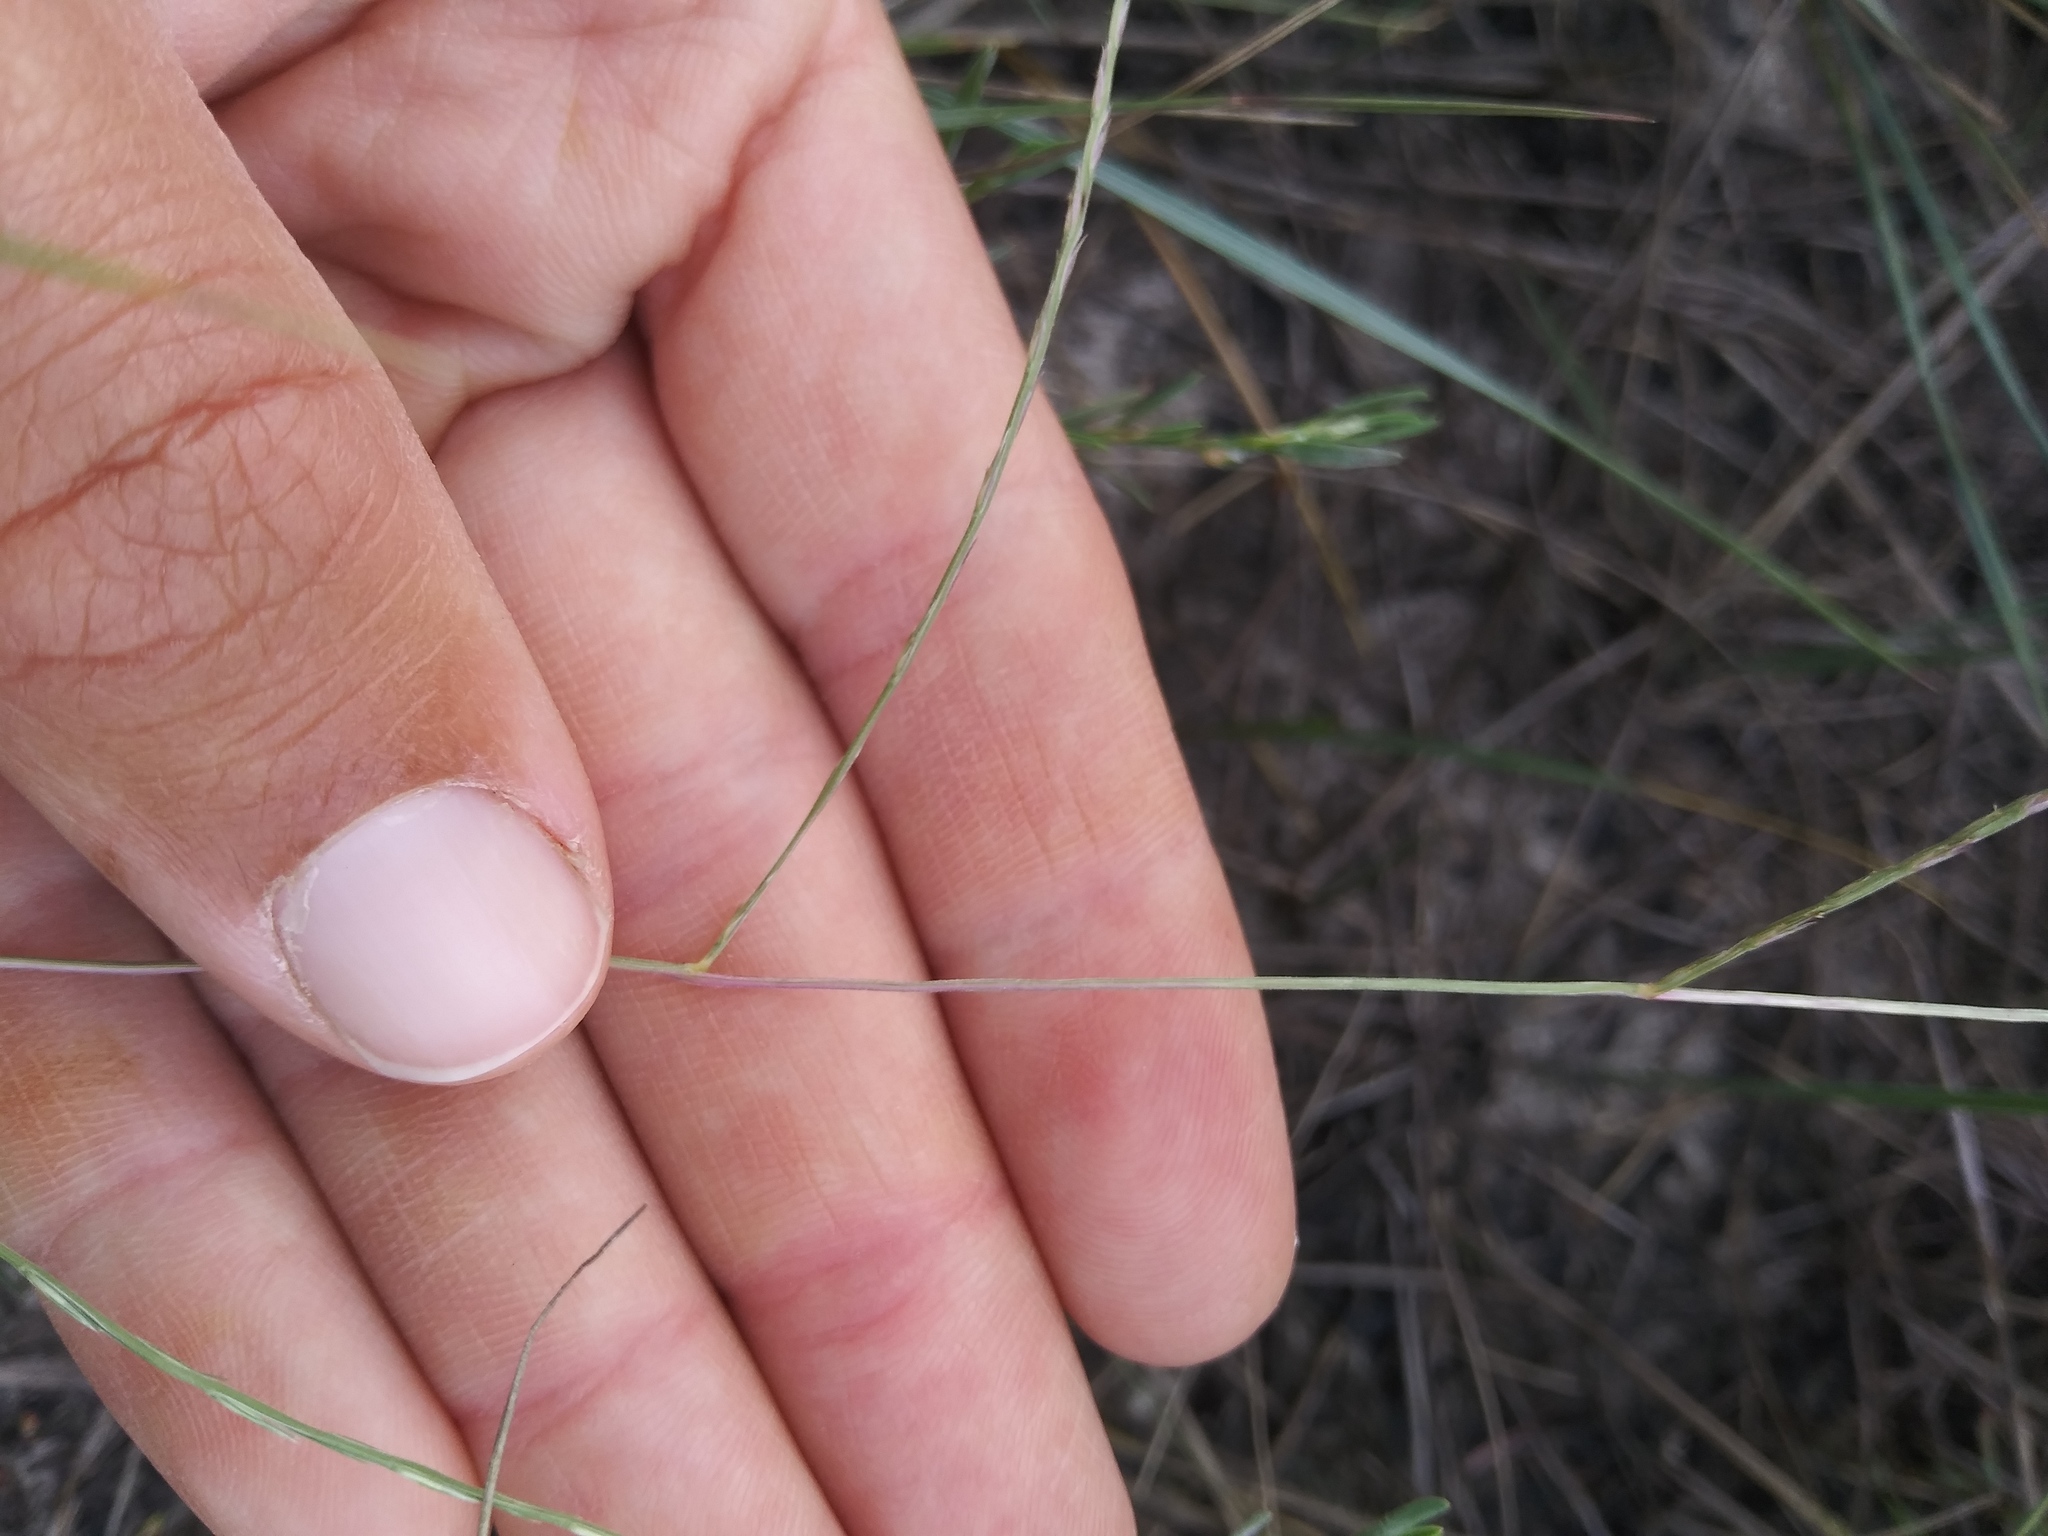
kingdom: Plantae
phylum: Tracheophyta
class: Liliopsida
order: Poales
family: Poaceae
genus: Muhlenbergia
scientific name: Muhlenbergia paniculata
